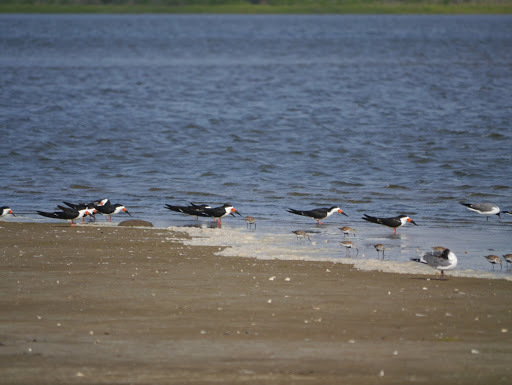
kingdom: Animalia
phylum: Chordata
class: Aves
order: Charadriiformes
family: Laridae
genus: Rynchops
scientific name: Rynchops niger
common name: Black skimmer
